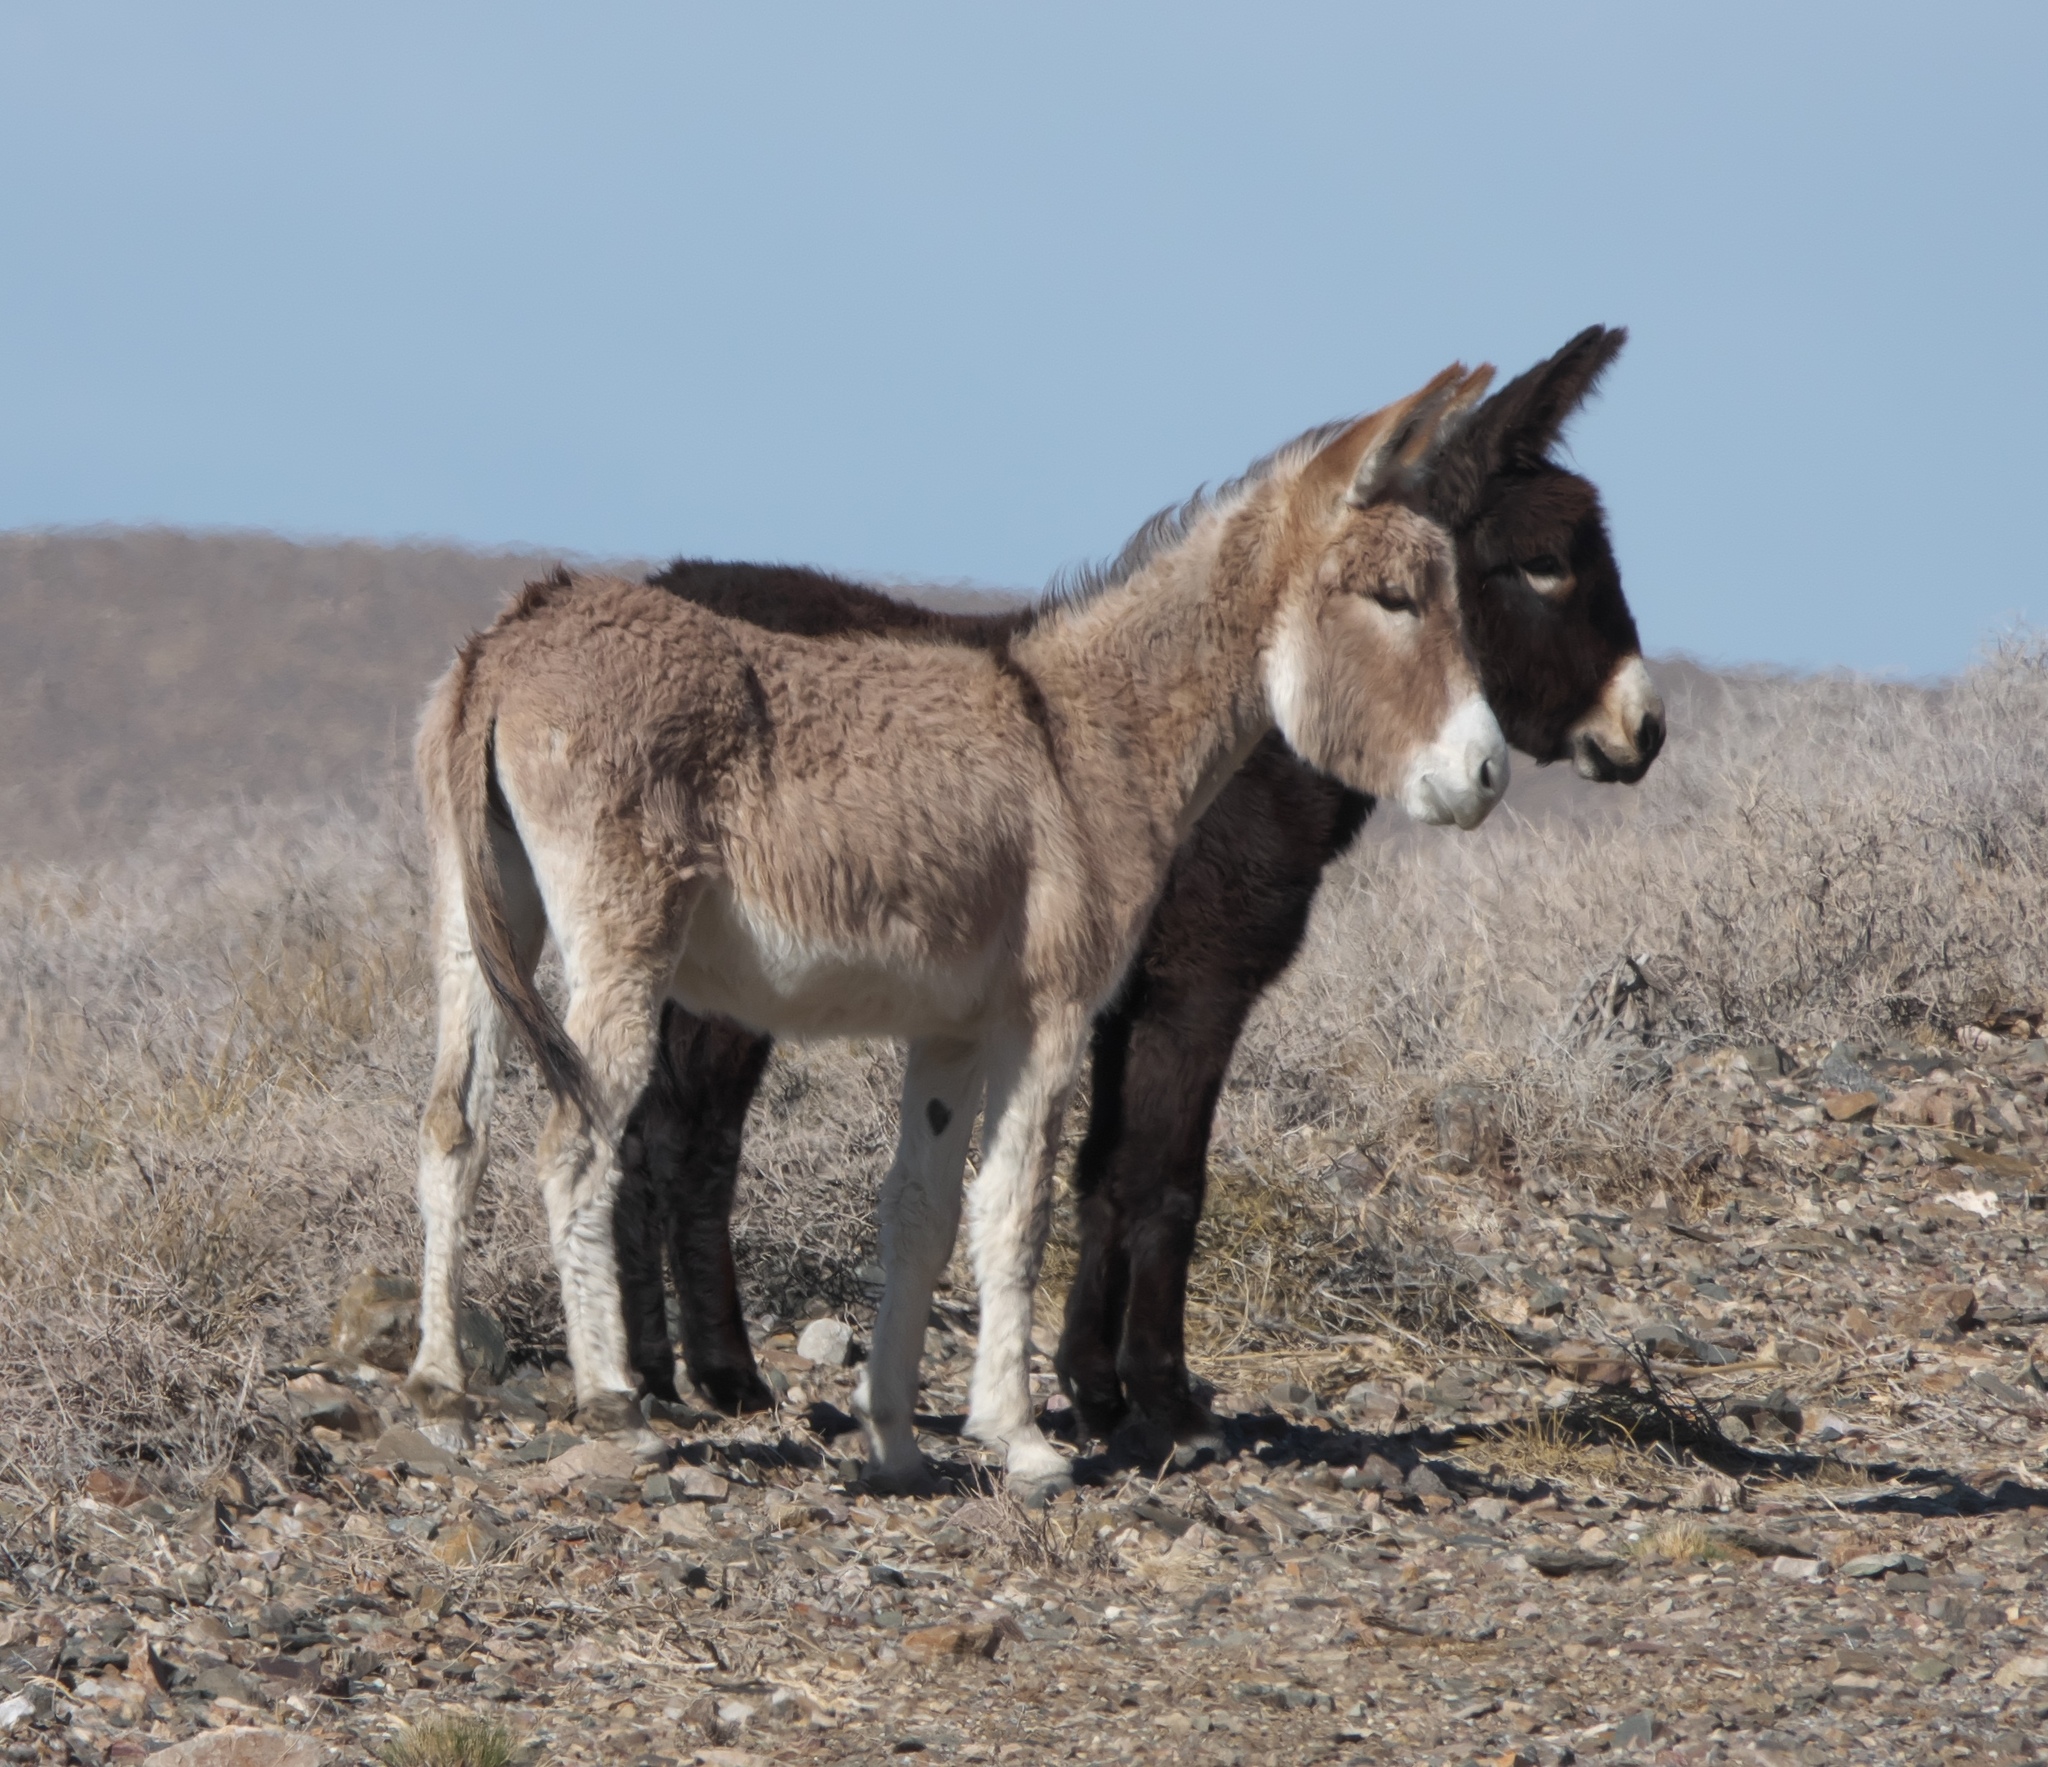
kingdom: Animalia
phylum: Chordata
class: Mammalia
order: Perissodactyla
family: Equidae
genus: Equus
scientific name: Equus asinus
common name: Ass
